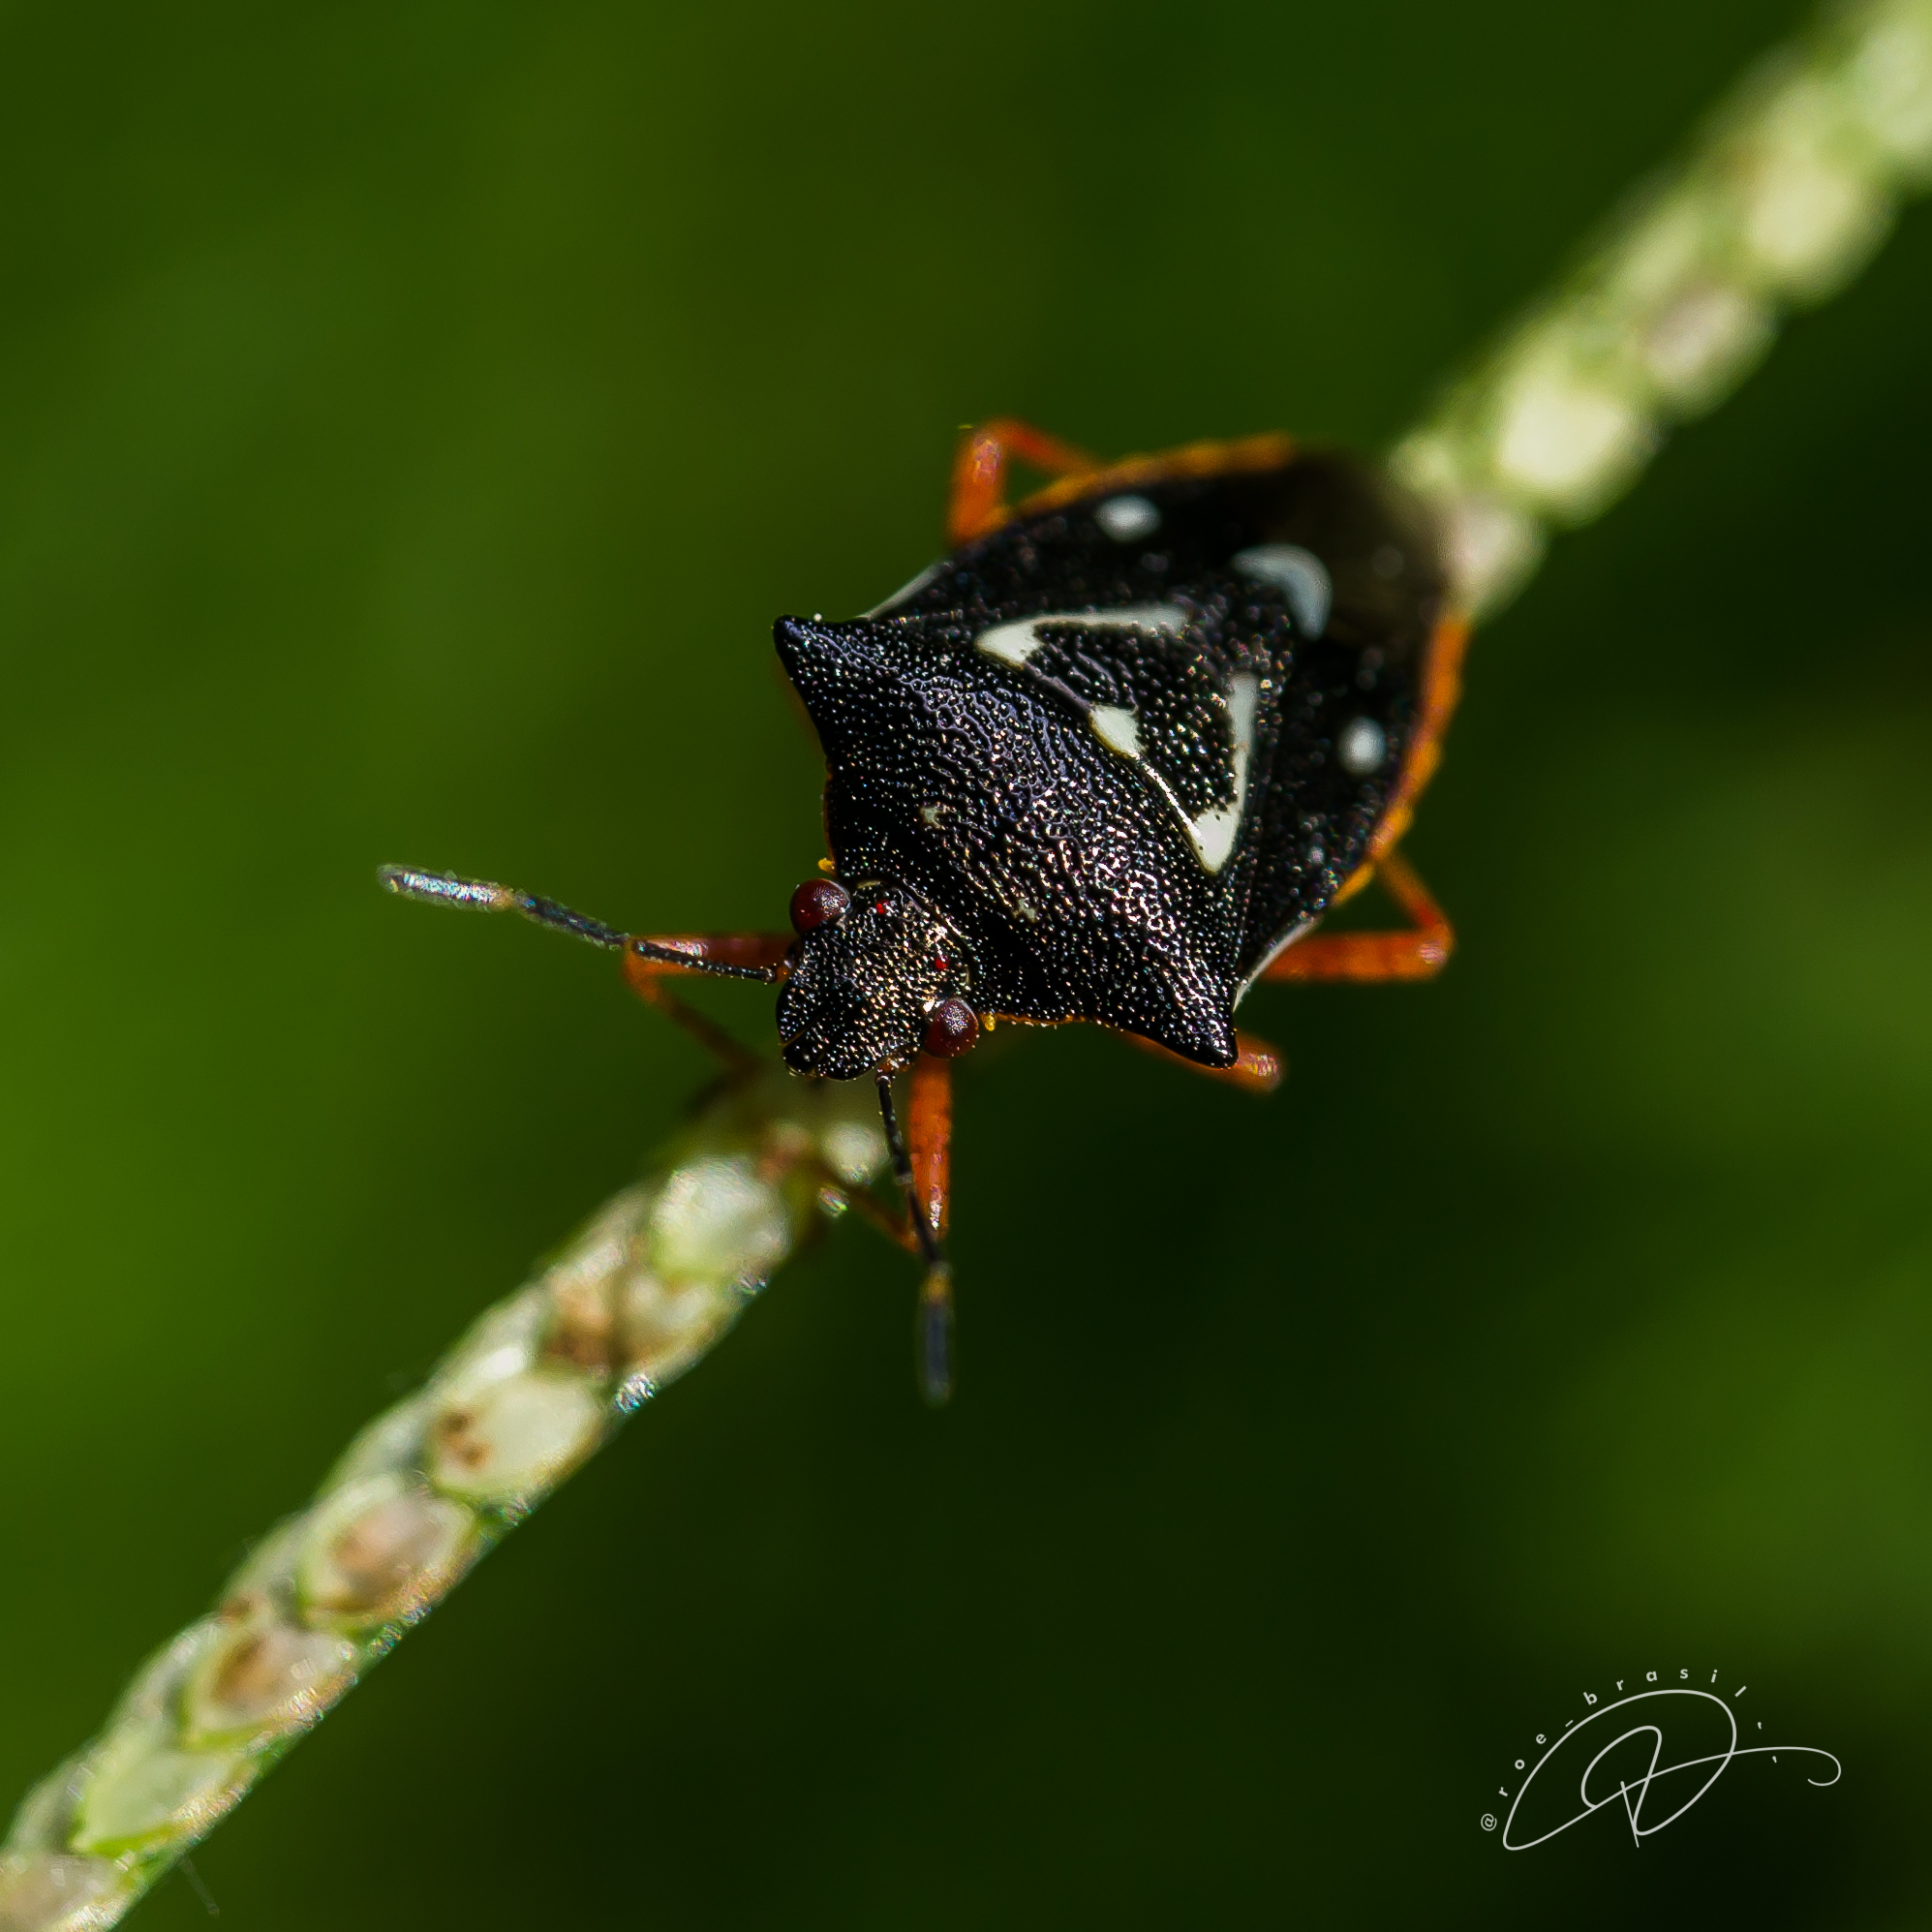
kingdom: Animalia
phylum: Arthropoda
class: Insecta
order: Hemiptera
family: Pentatomidae
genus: Mormidea
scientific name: Mormidea v-luteum
